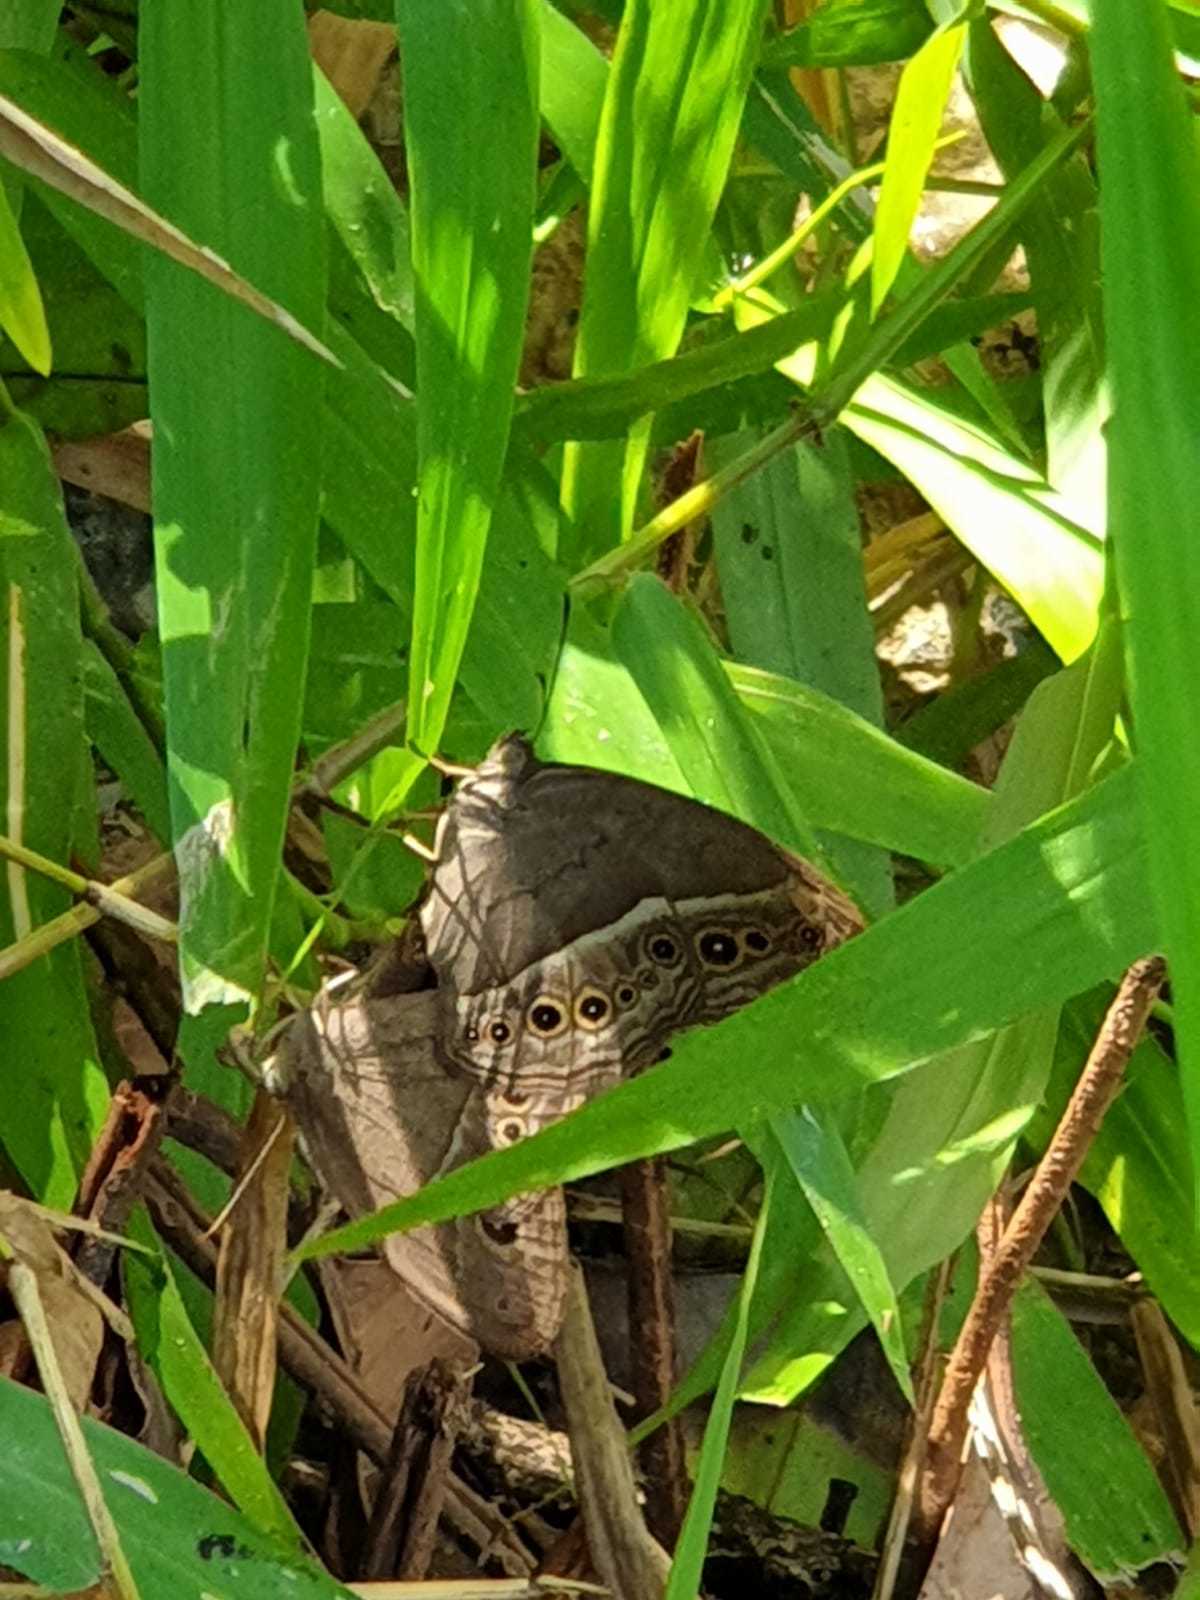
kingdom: Animalia
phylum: Arthropoda
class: Insecta
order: Lepidoptera
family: Nymphalidae
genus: Mycalesis
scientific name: Mycalesis perseoides
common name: Burmese bushbrown
